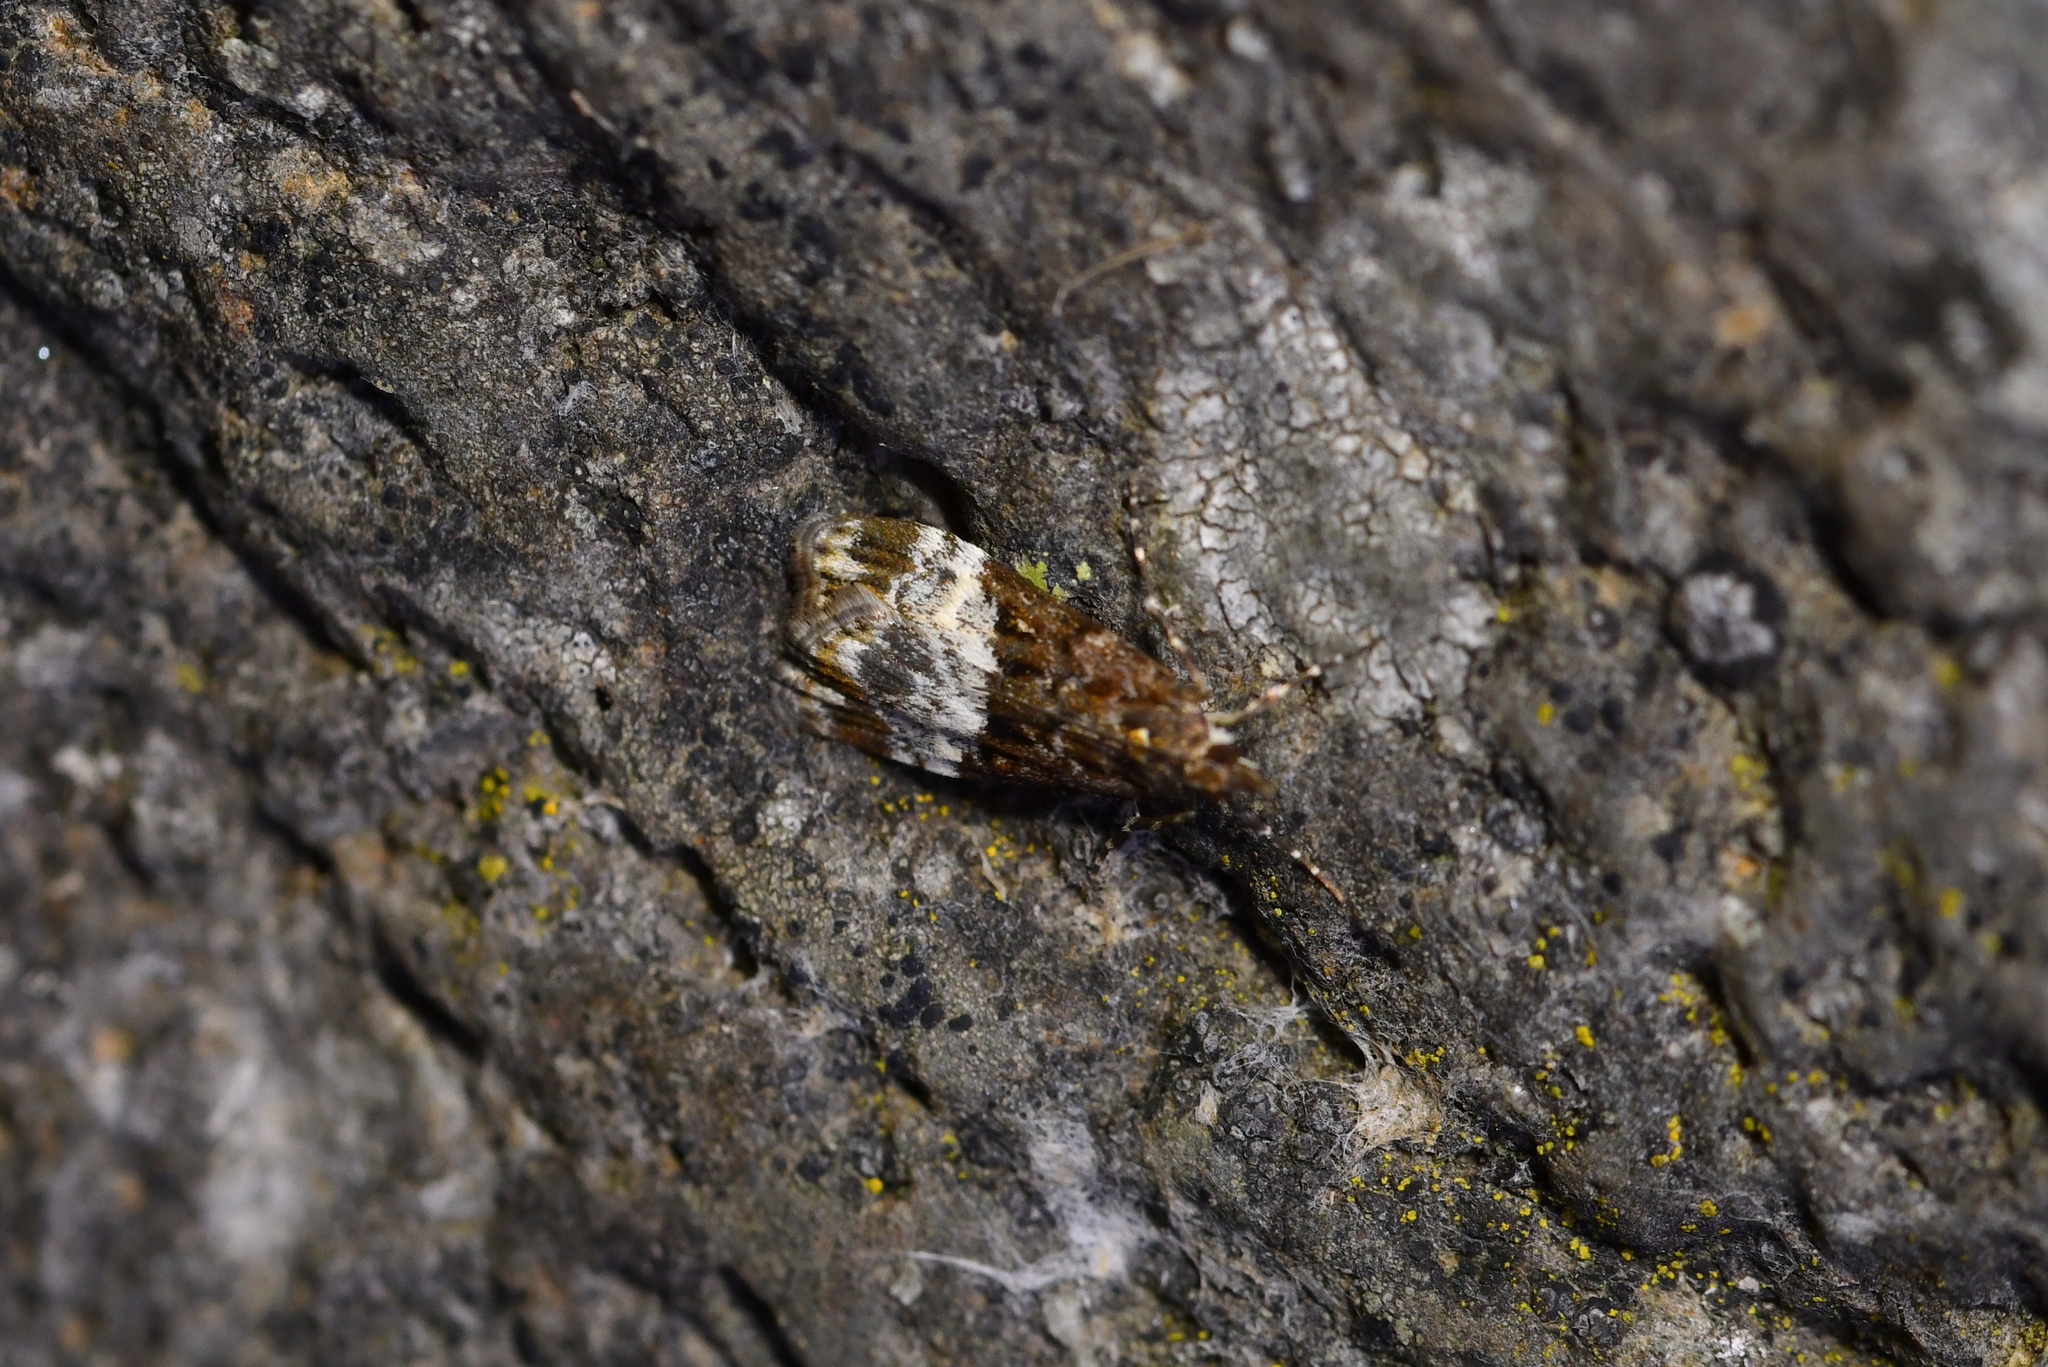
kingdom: Animalia
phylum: Arthropoda
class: Insecta
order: Lepidoptera
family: Crambidae
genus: Scoparia
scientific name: Scoparia minusculalis
